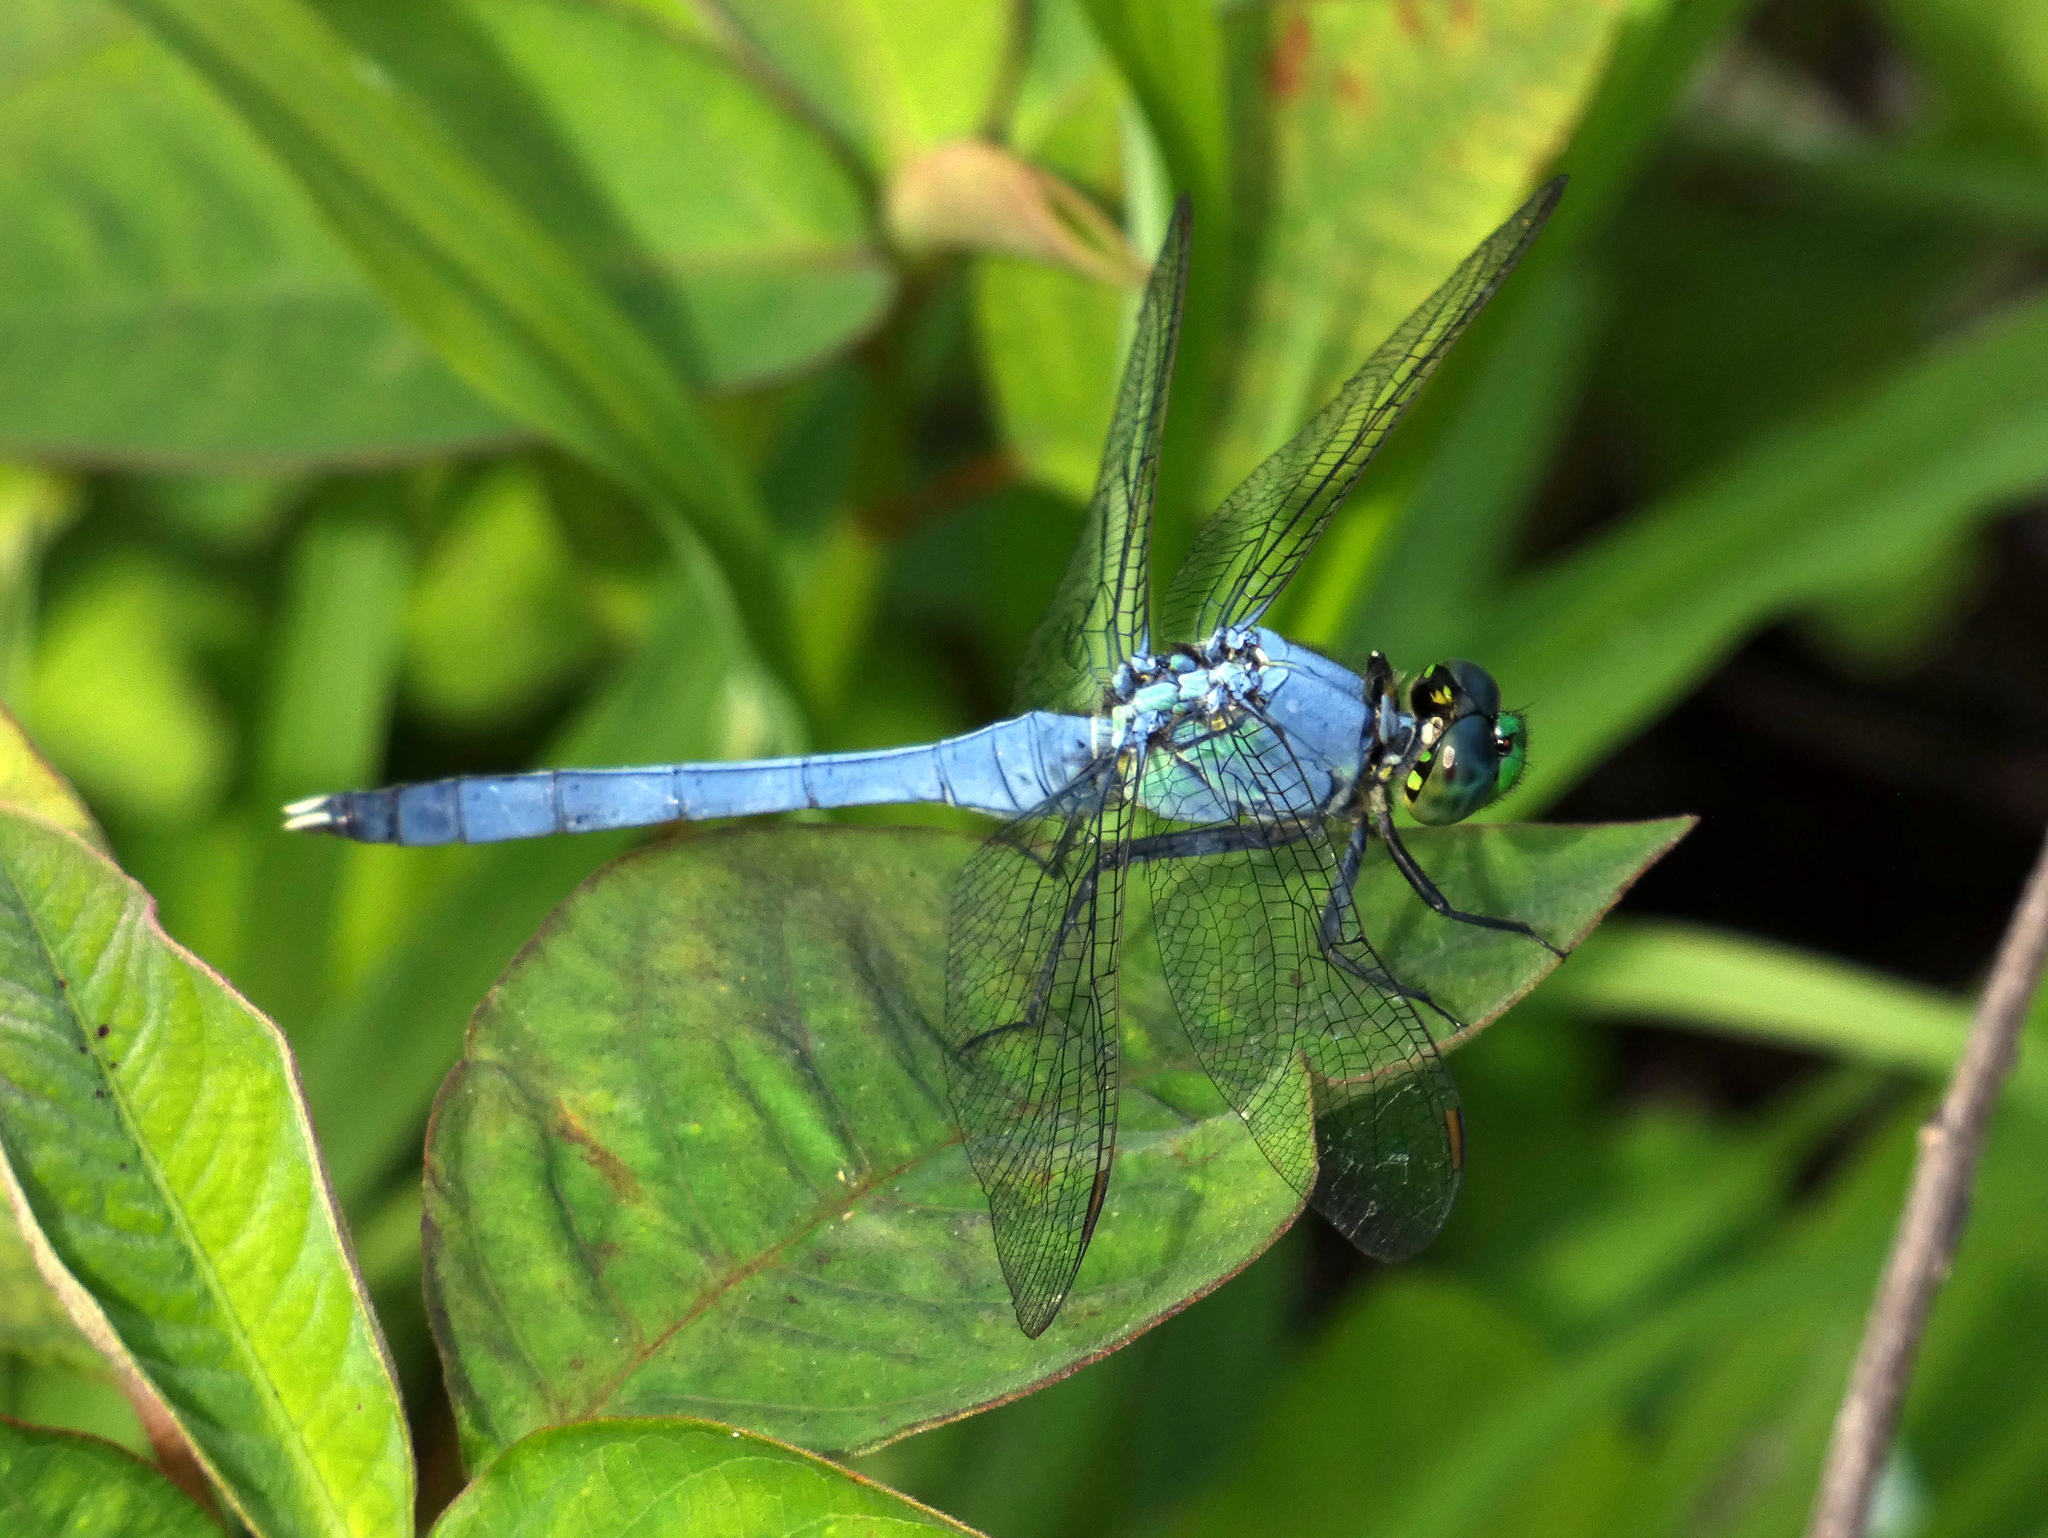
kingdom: Animalia
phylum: Arthropoda
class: Insecta
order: Odonata
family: Libellulidae
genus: Erythemis
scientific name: Erythemis simplicicollis
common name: Eastern pondhawk
